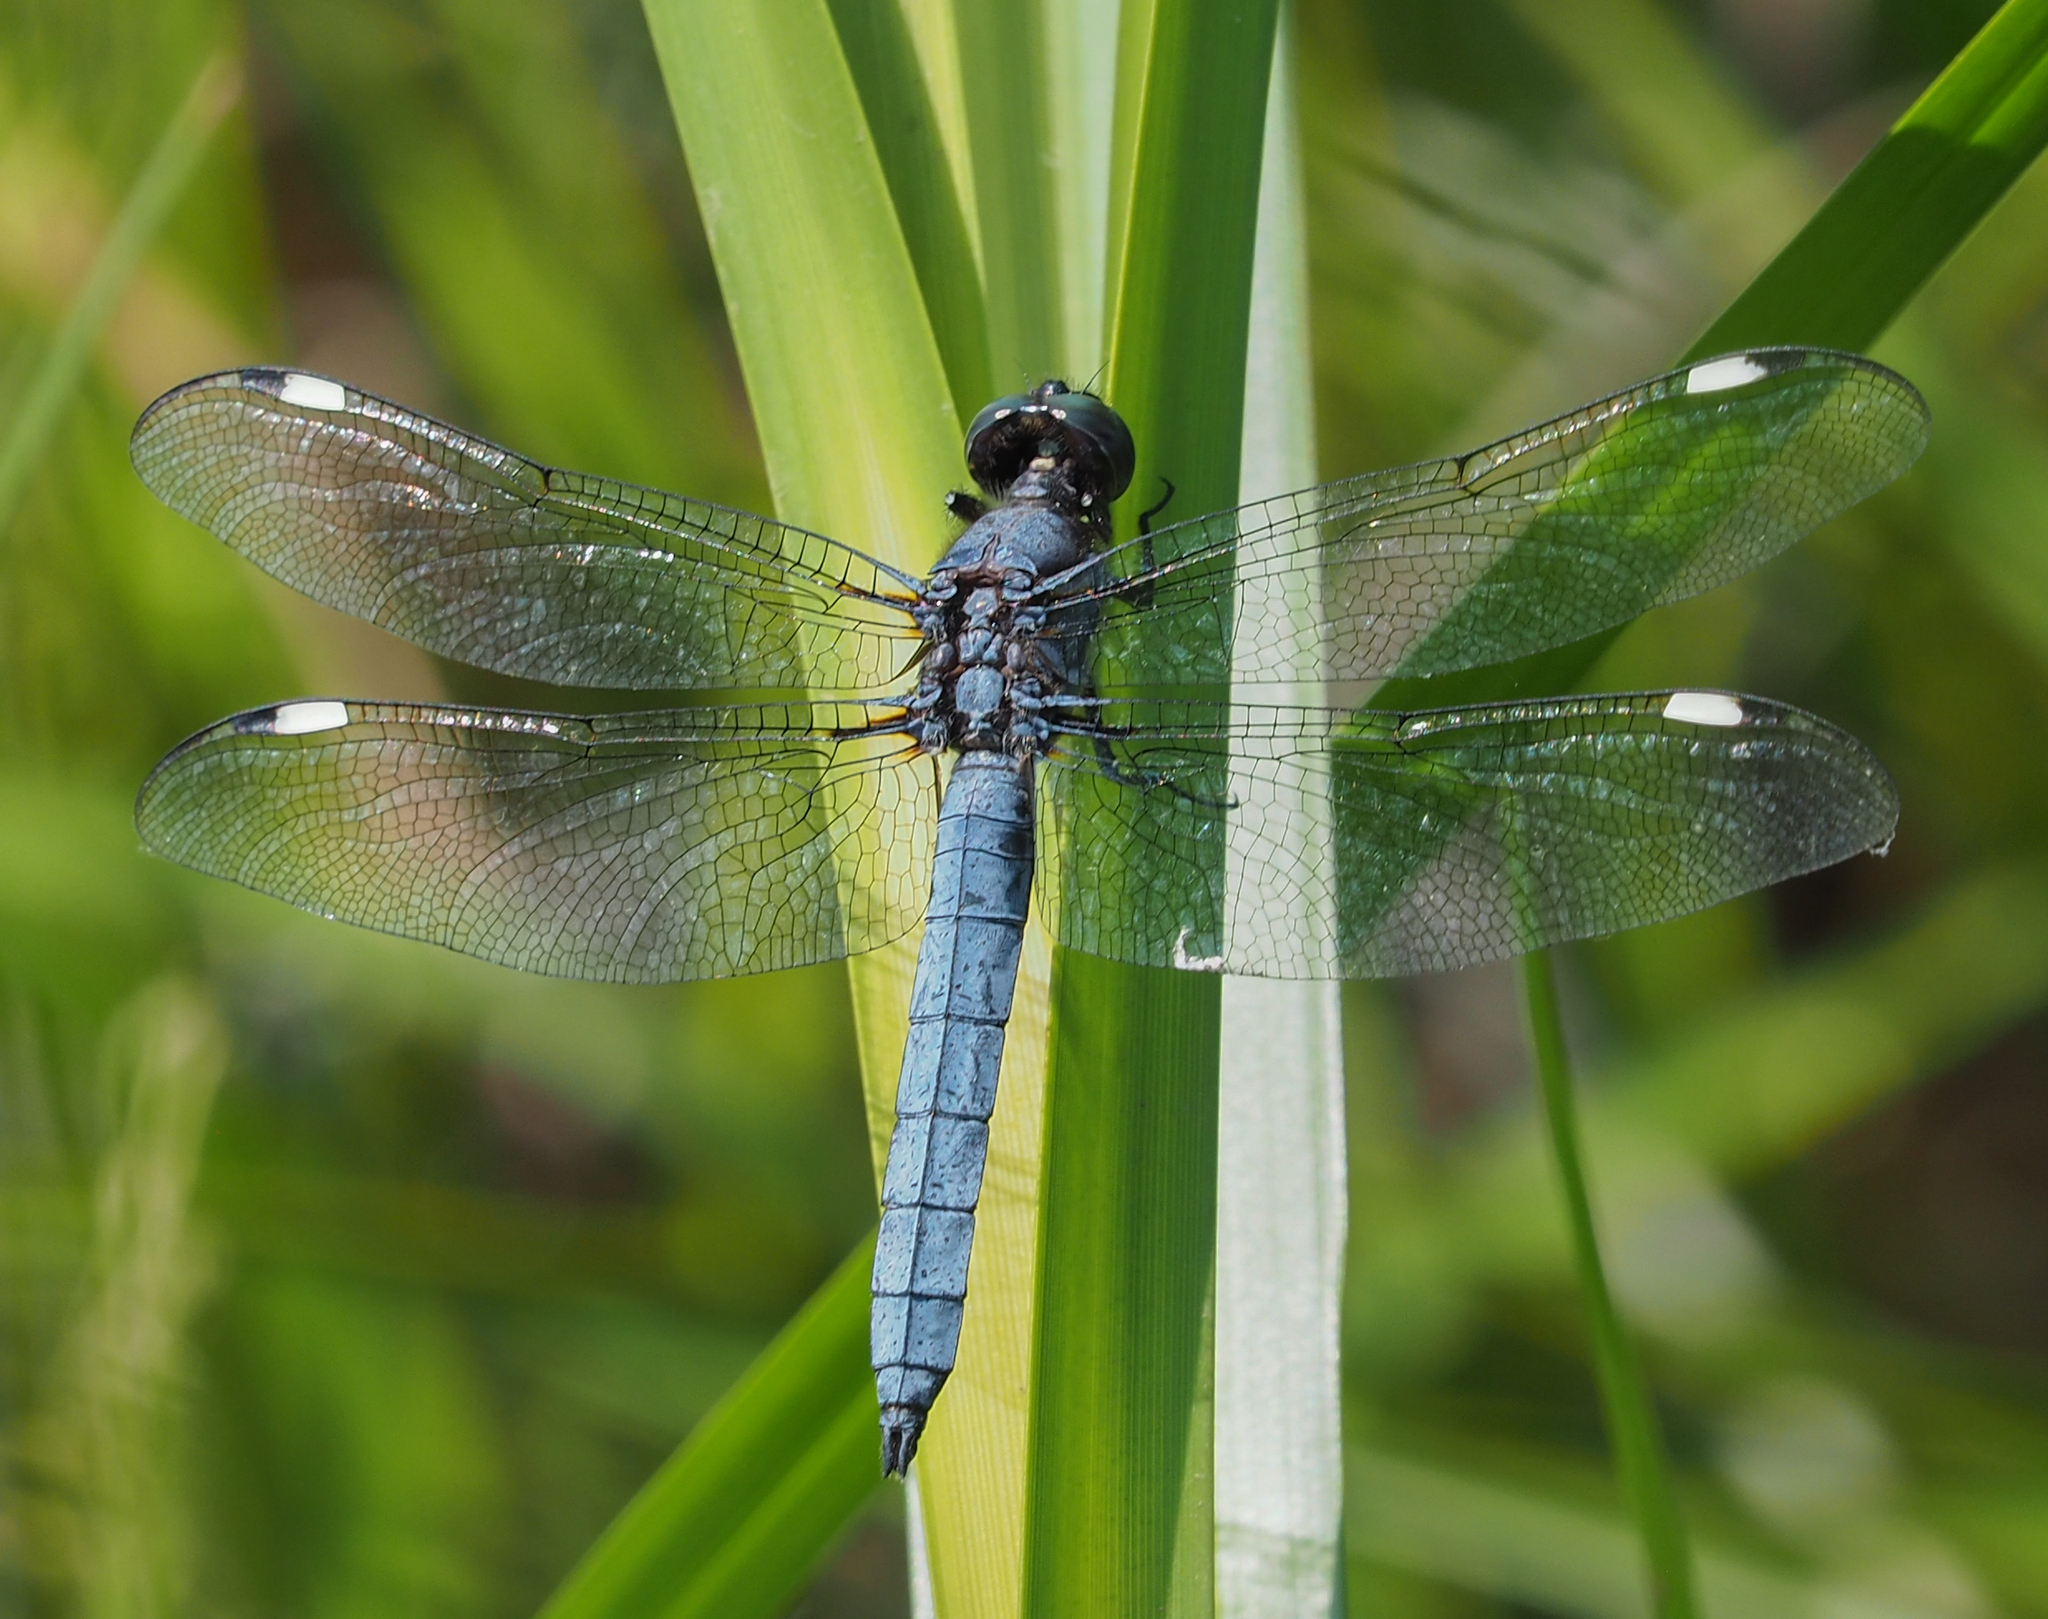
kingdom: Animalia
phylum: Arthropoda
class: Insecta
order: Odonata
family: Libellulidae
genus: Libellula
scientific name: Libellula cyanea
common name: Spangled skimmer
